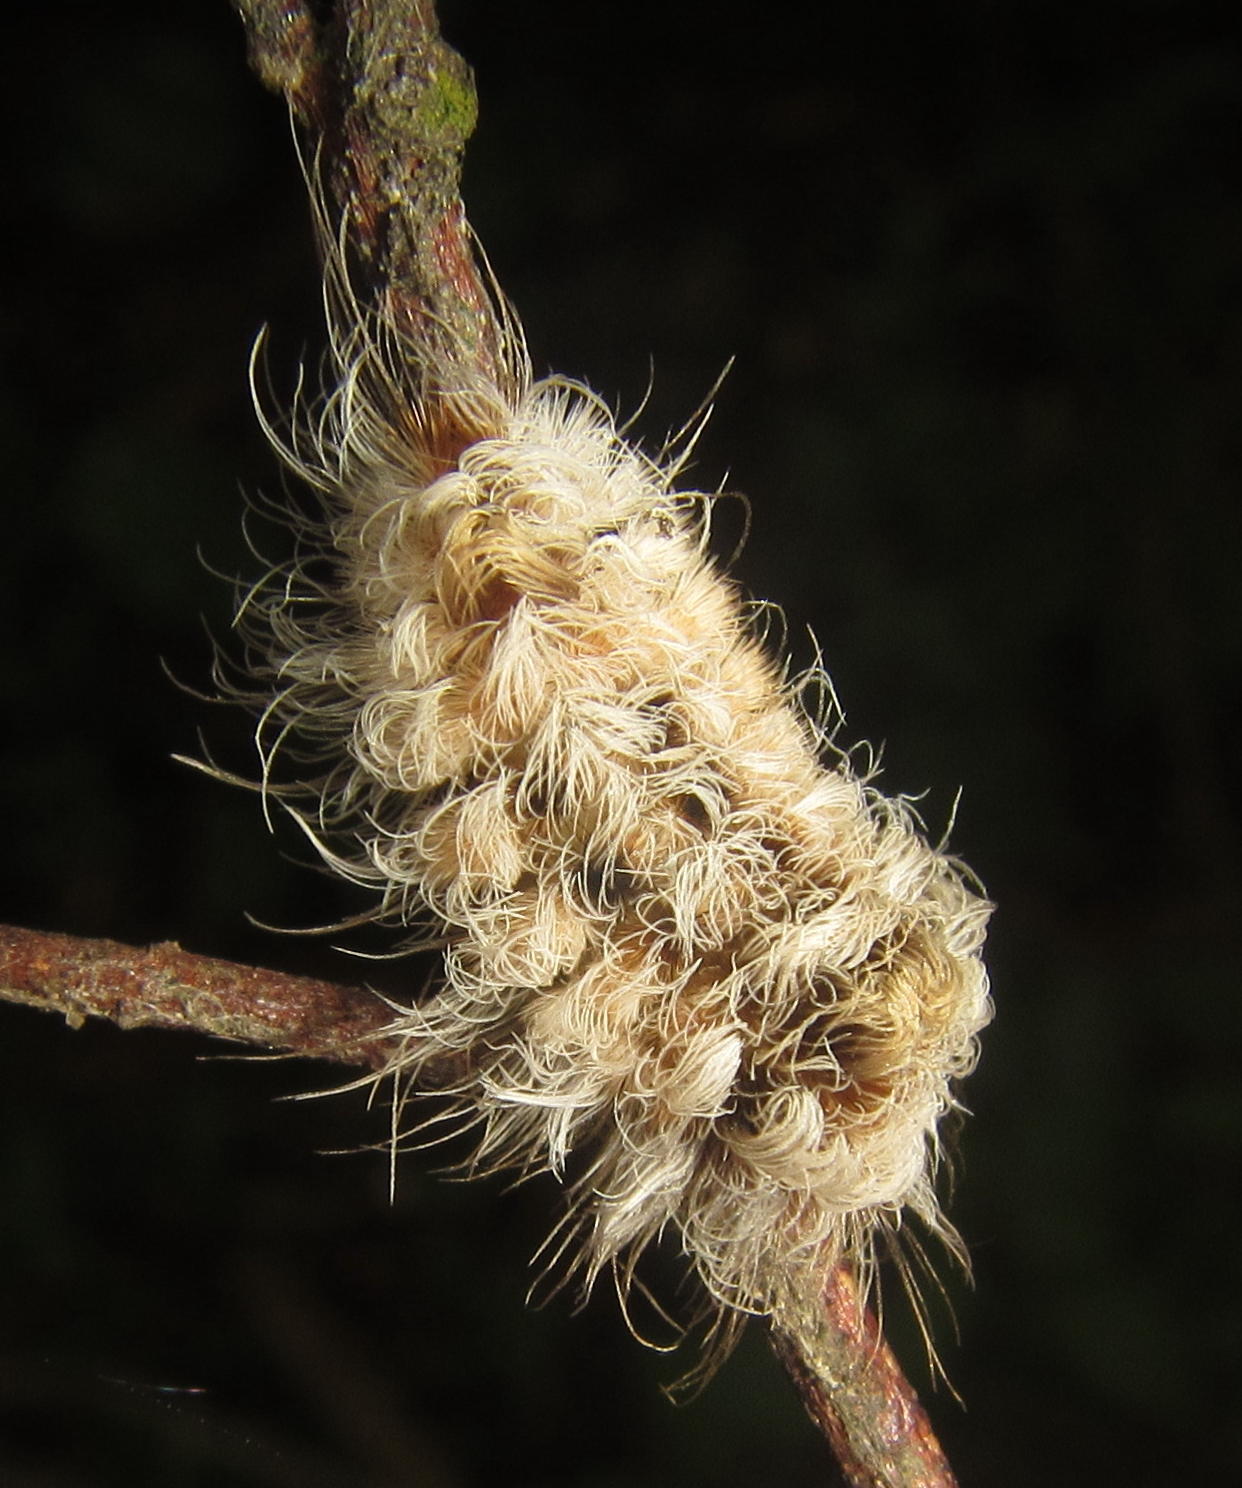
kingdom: Animalia
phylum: Arthropoda
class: Insecta
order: Lepidoptera
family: Erebidae
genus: Tumicla
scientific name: Tumicla sagenaria
